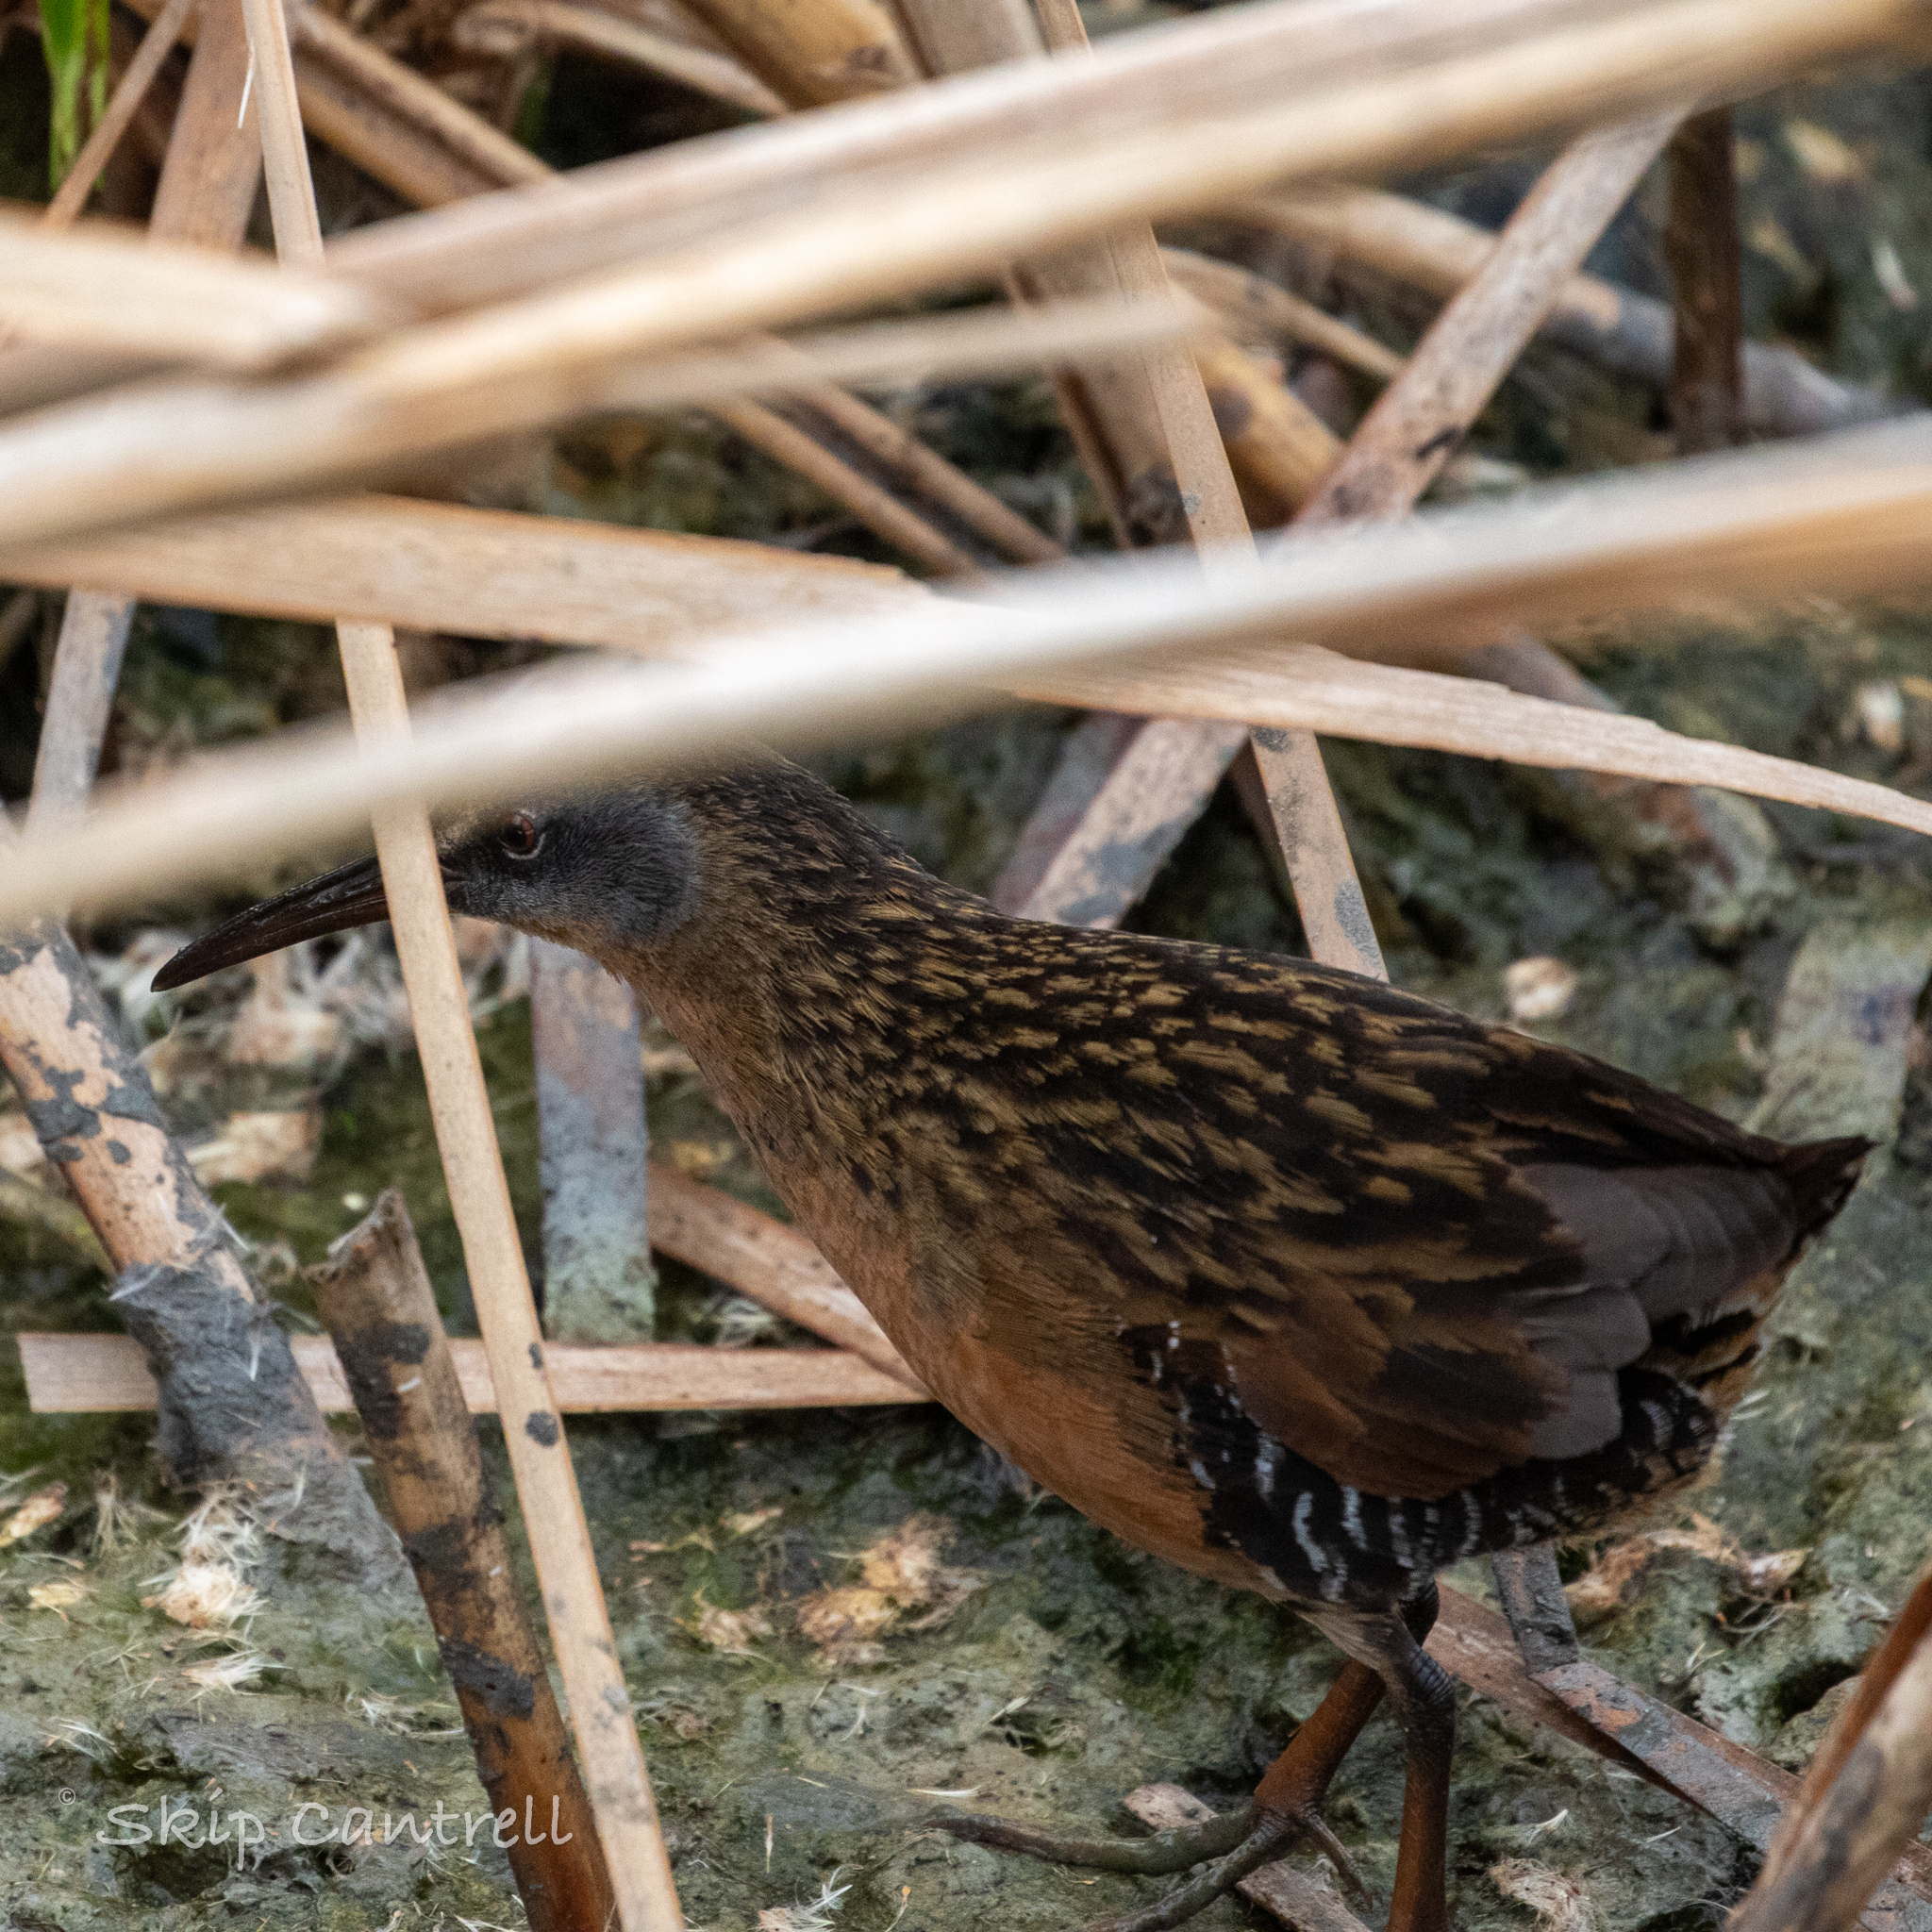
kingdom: Animalia
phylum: Chordata
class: Aves
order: Gruiformes
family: Rallidae
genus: Rallus
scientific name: Rallus limicola
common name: Virginia rail
